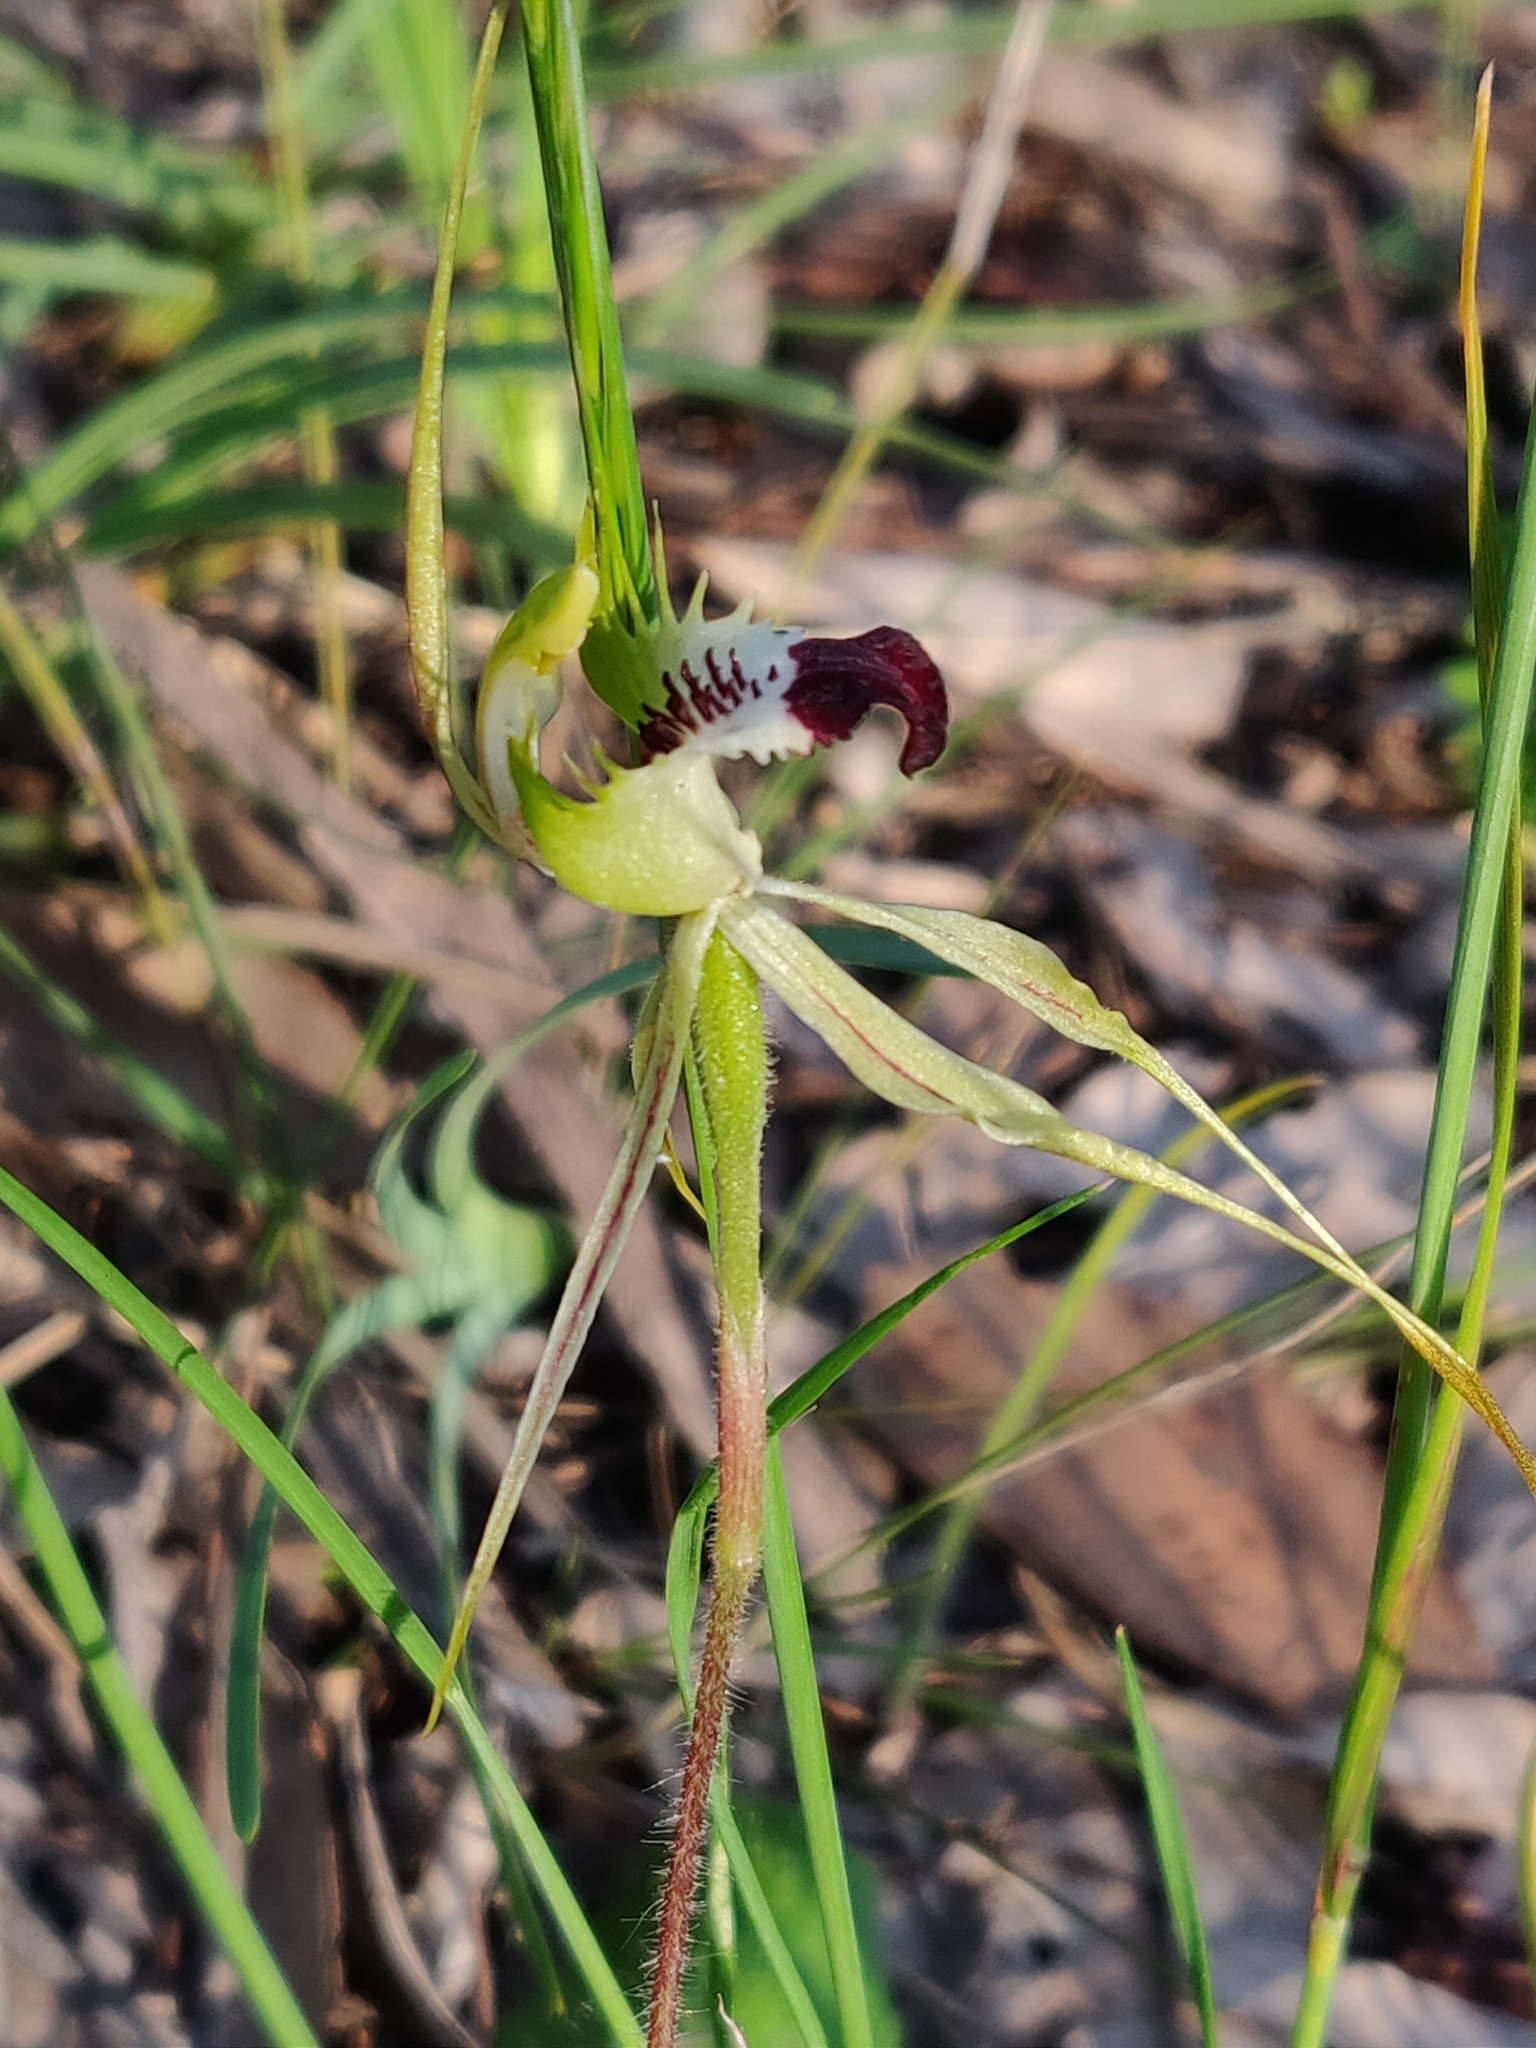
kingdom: Plantae
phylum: Tracheophyta
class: Liliopsida
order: Asparagales
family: Orchidaceae
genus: Caladenia
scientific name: Caladenia atrovespa
